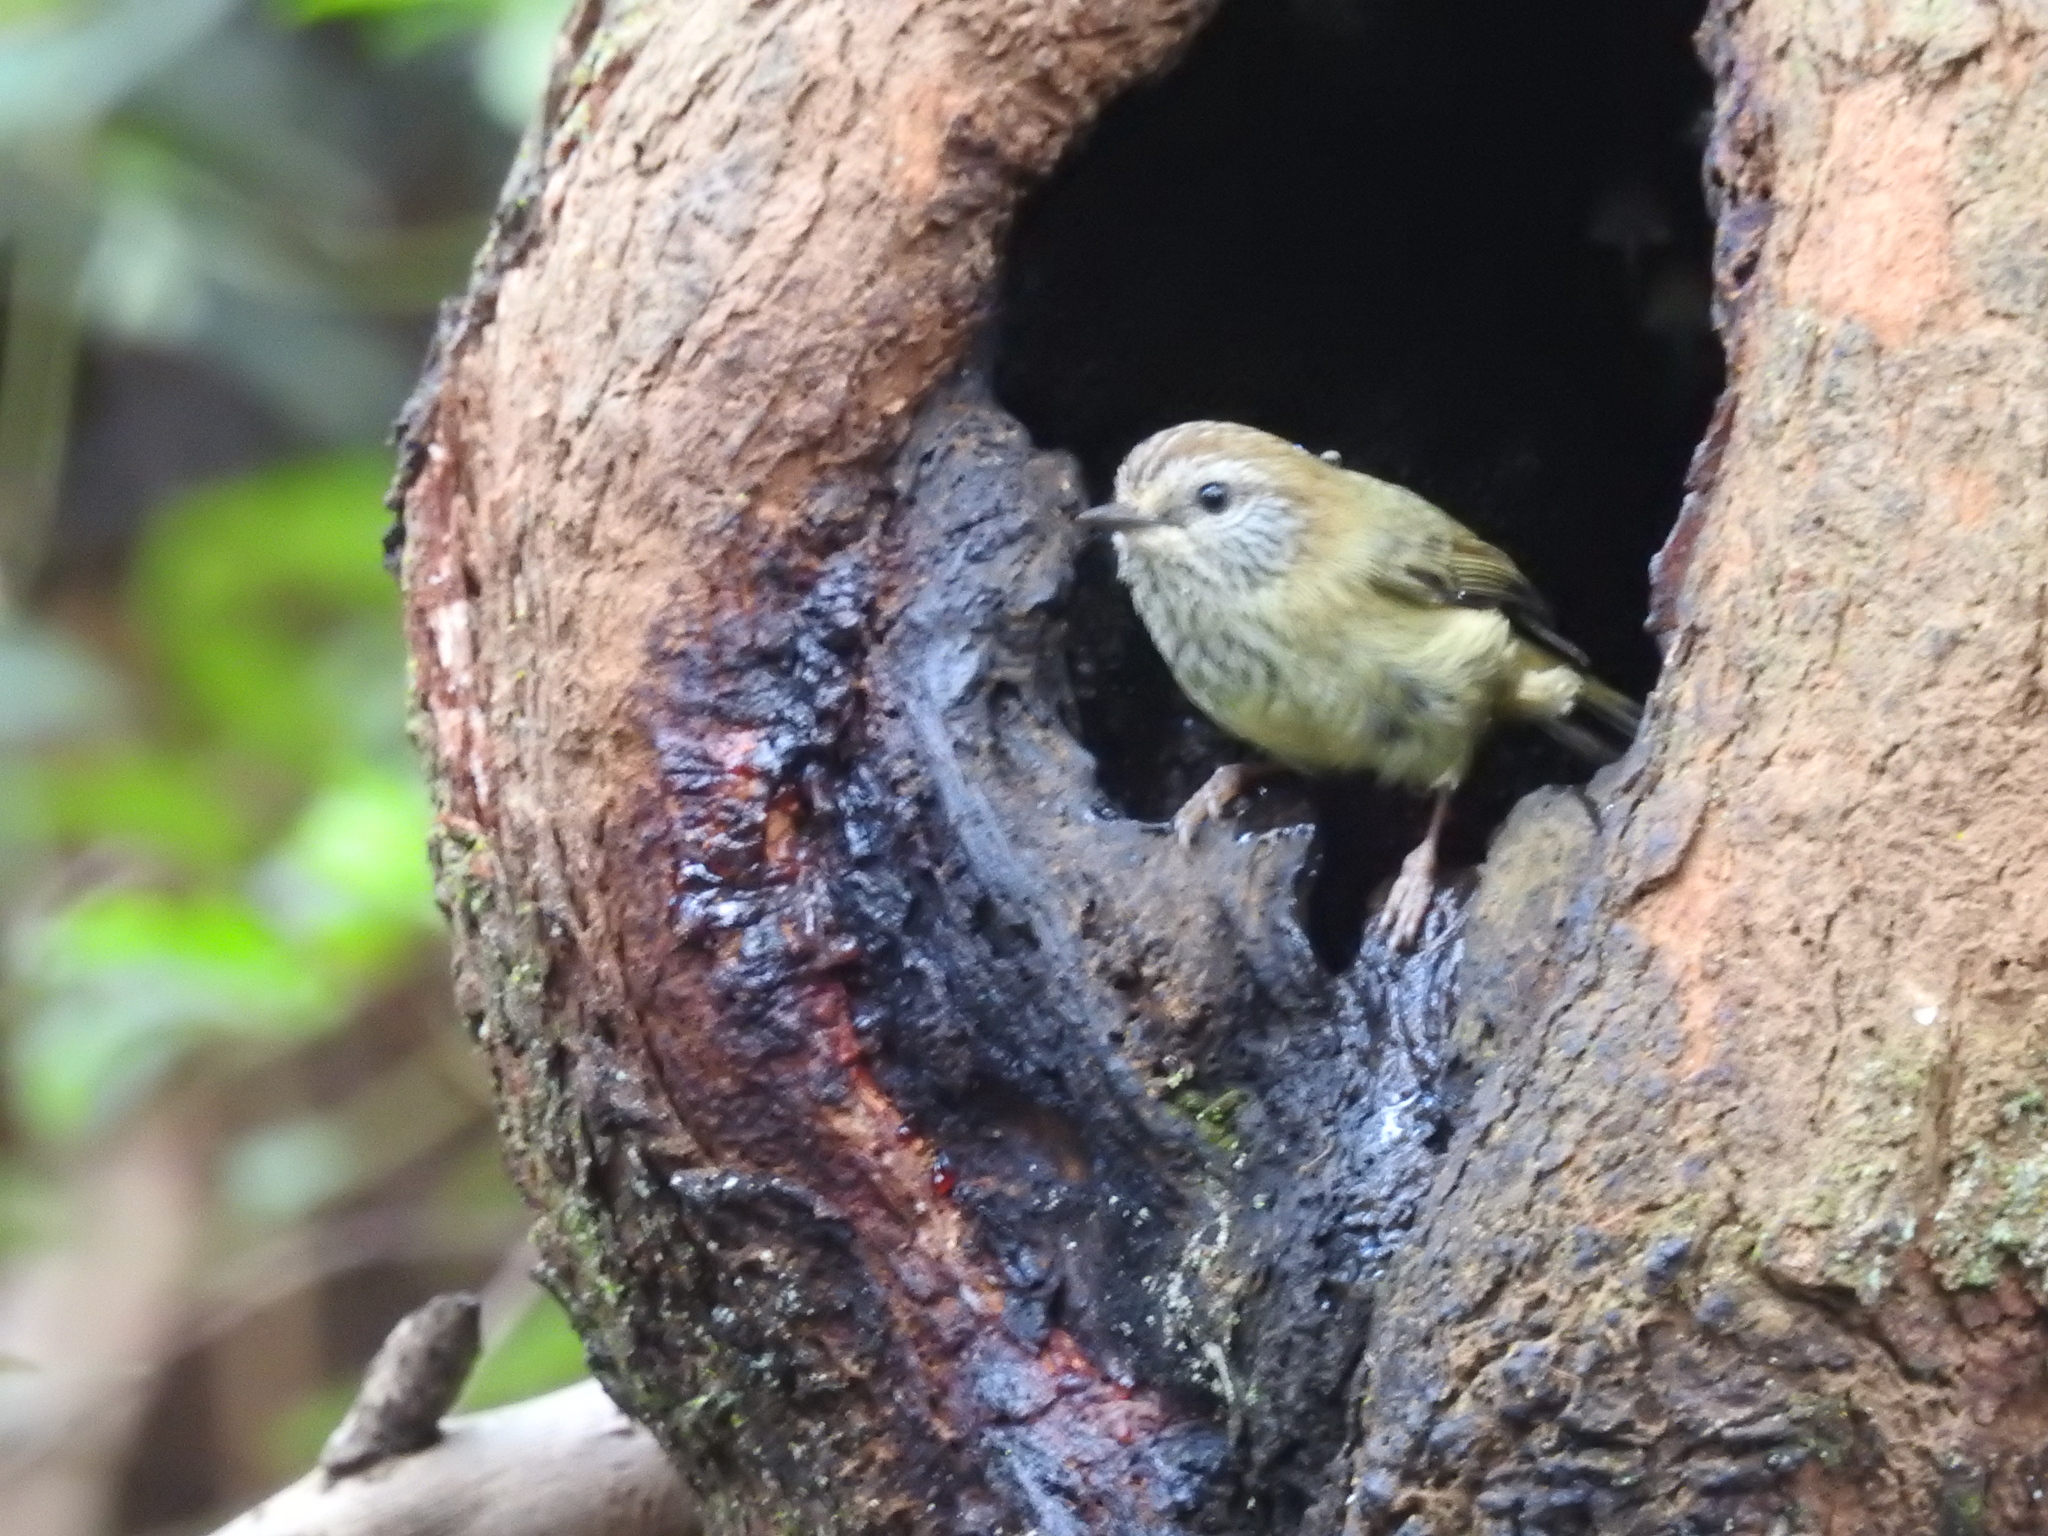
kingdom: Animalia
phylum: Chordata
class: Aves
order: Passeriformes
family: Acanthizidae
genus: Acanthiza
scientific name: Acanthiza lineata
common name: Striated thornbill
